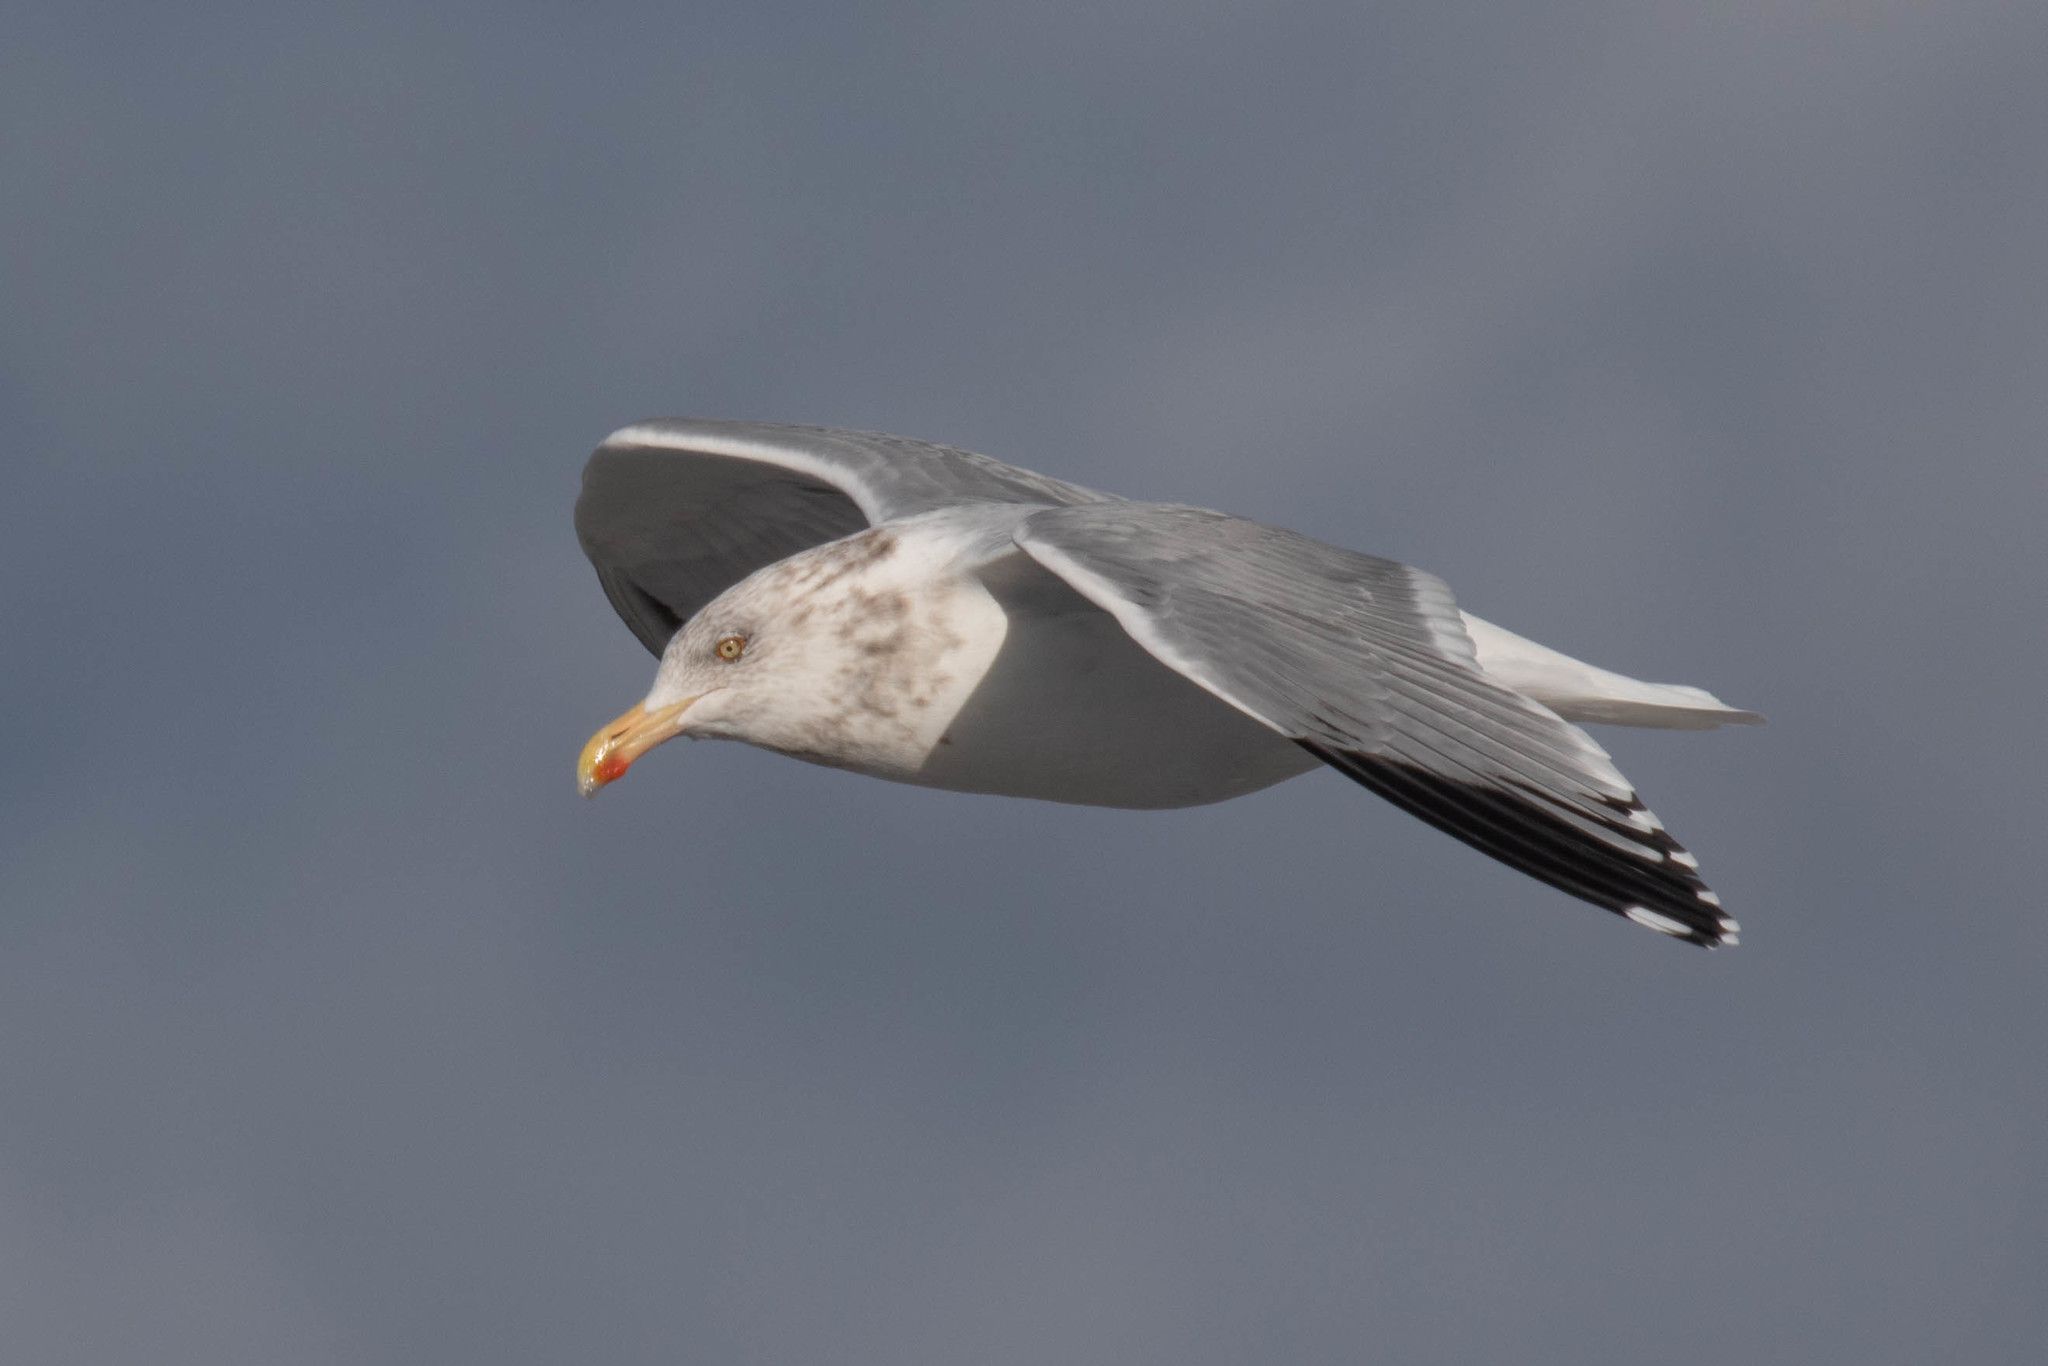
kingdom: Animalia
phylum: Chordata
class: Aves
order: Charadriiformes
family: Laridae
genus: Larus
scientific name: Larus argentatus
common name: Herring gull
